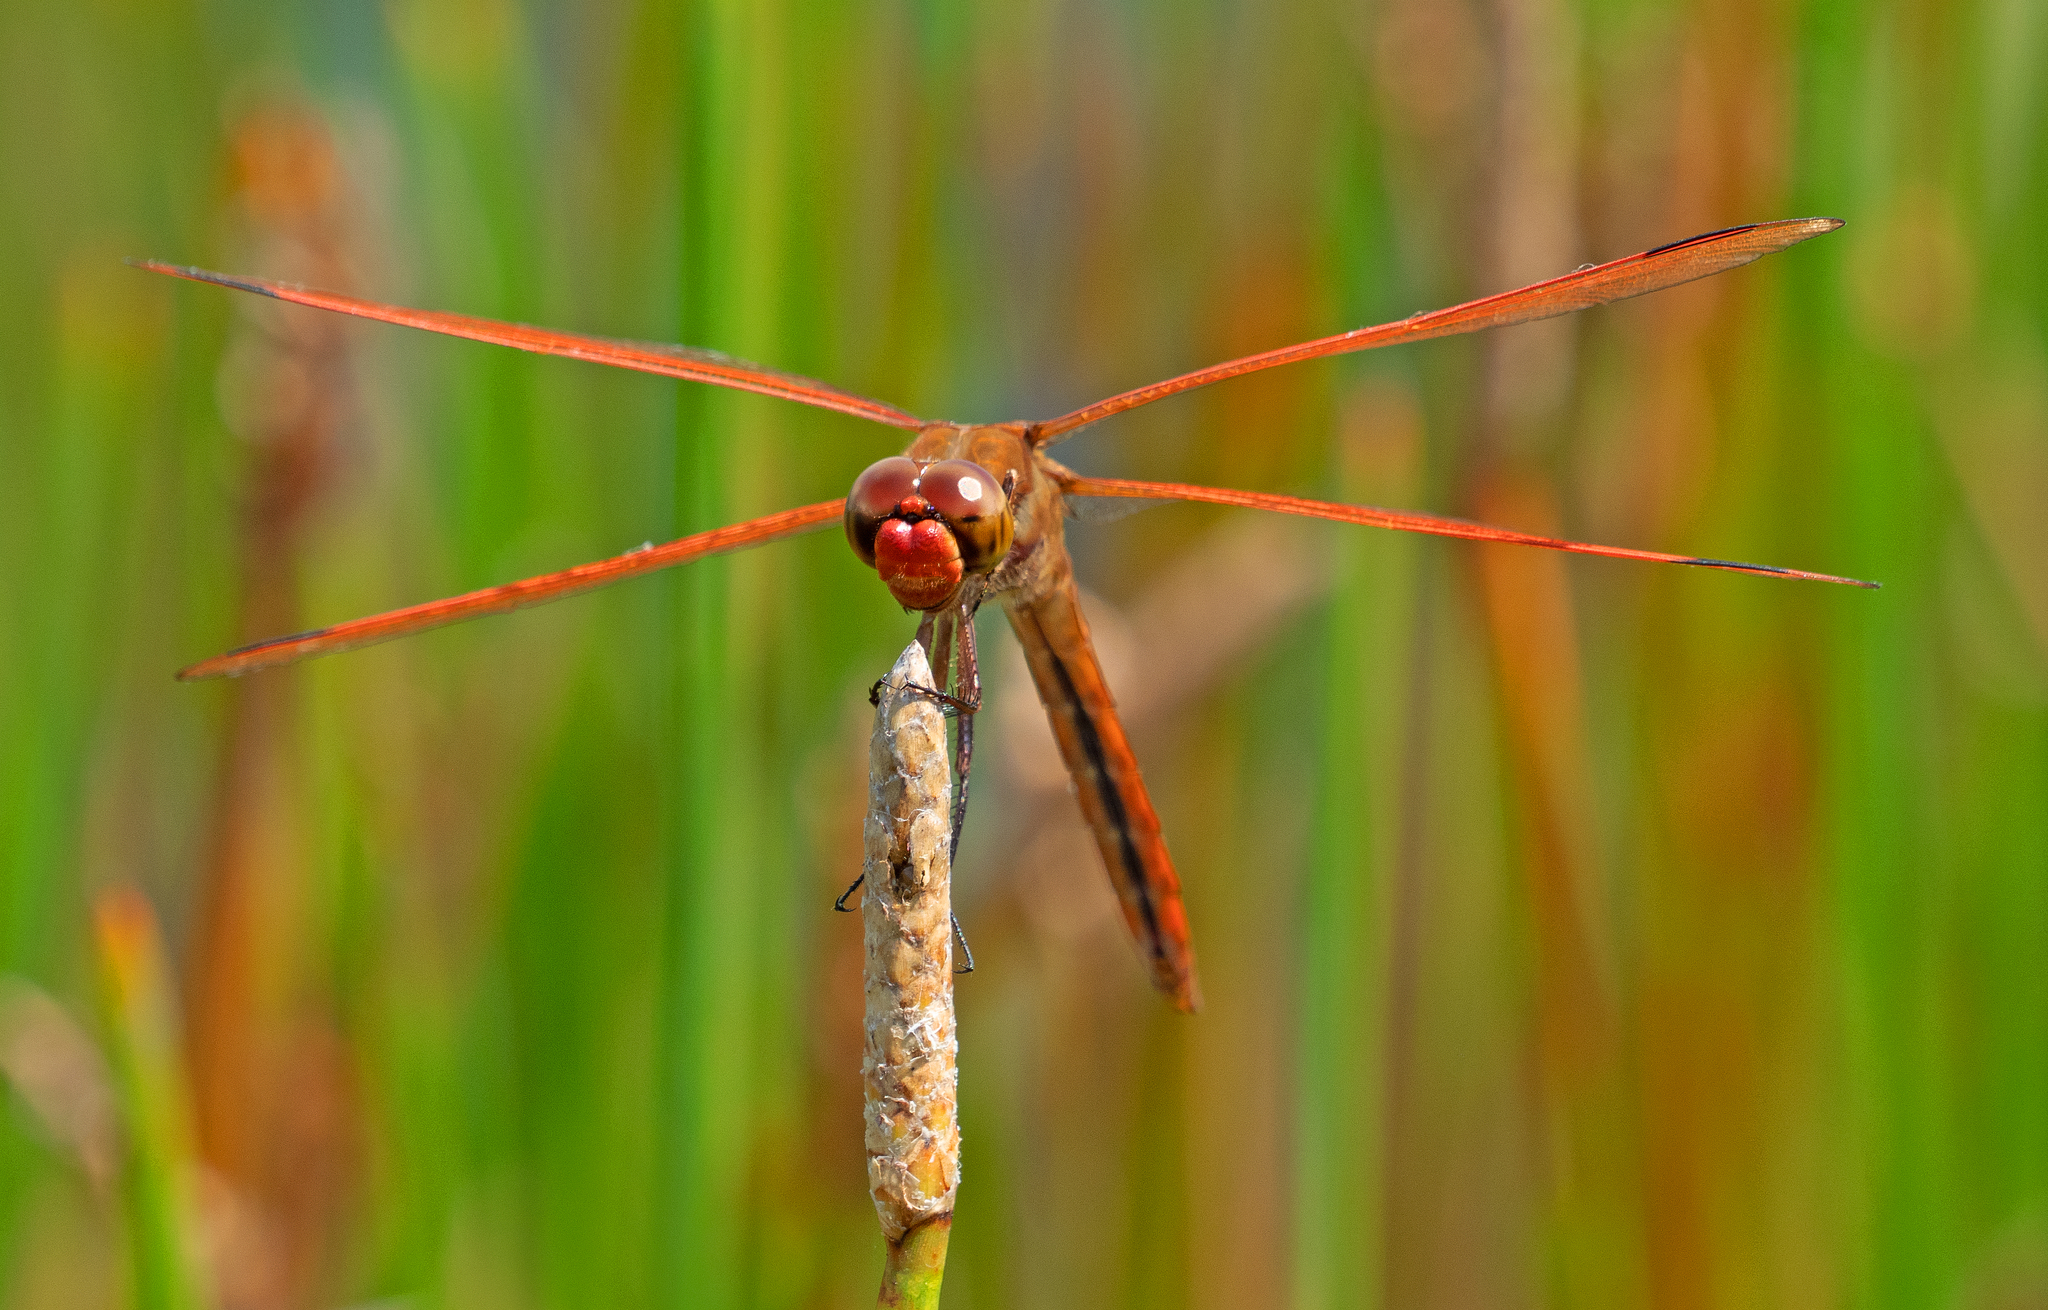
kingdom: Animalia
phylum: Arthropoda
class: Insecta
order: Odonata
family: Libellulidae
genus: Libellula
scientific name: Libellula auripennis
